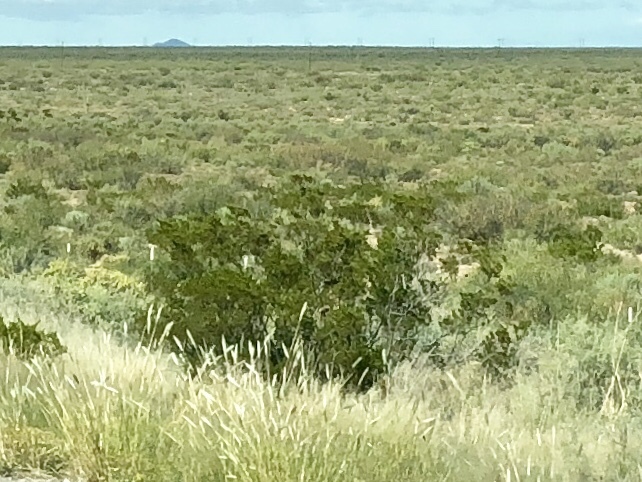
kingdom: Plantae
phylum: Tracheophyta
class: Magnoliopsida
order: Zygophyllales
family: Zygophyllaceae
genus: Larrea
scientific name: Larrea tridentata
